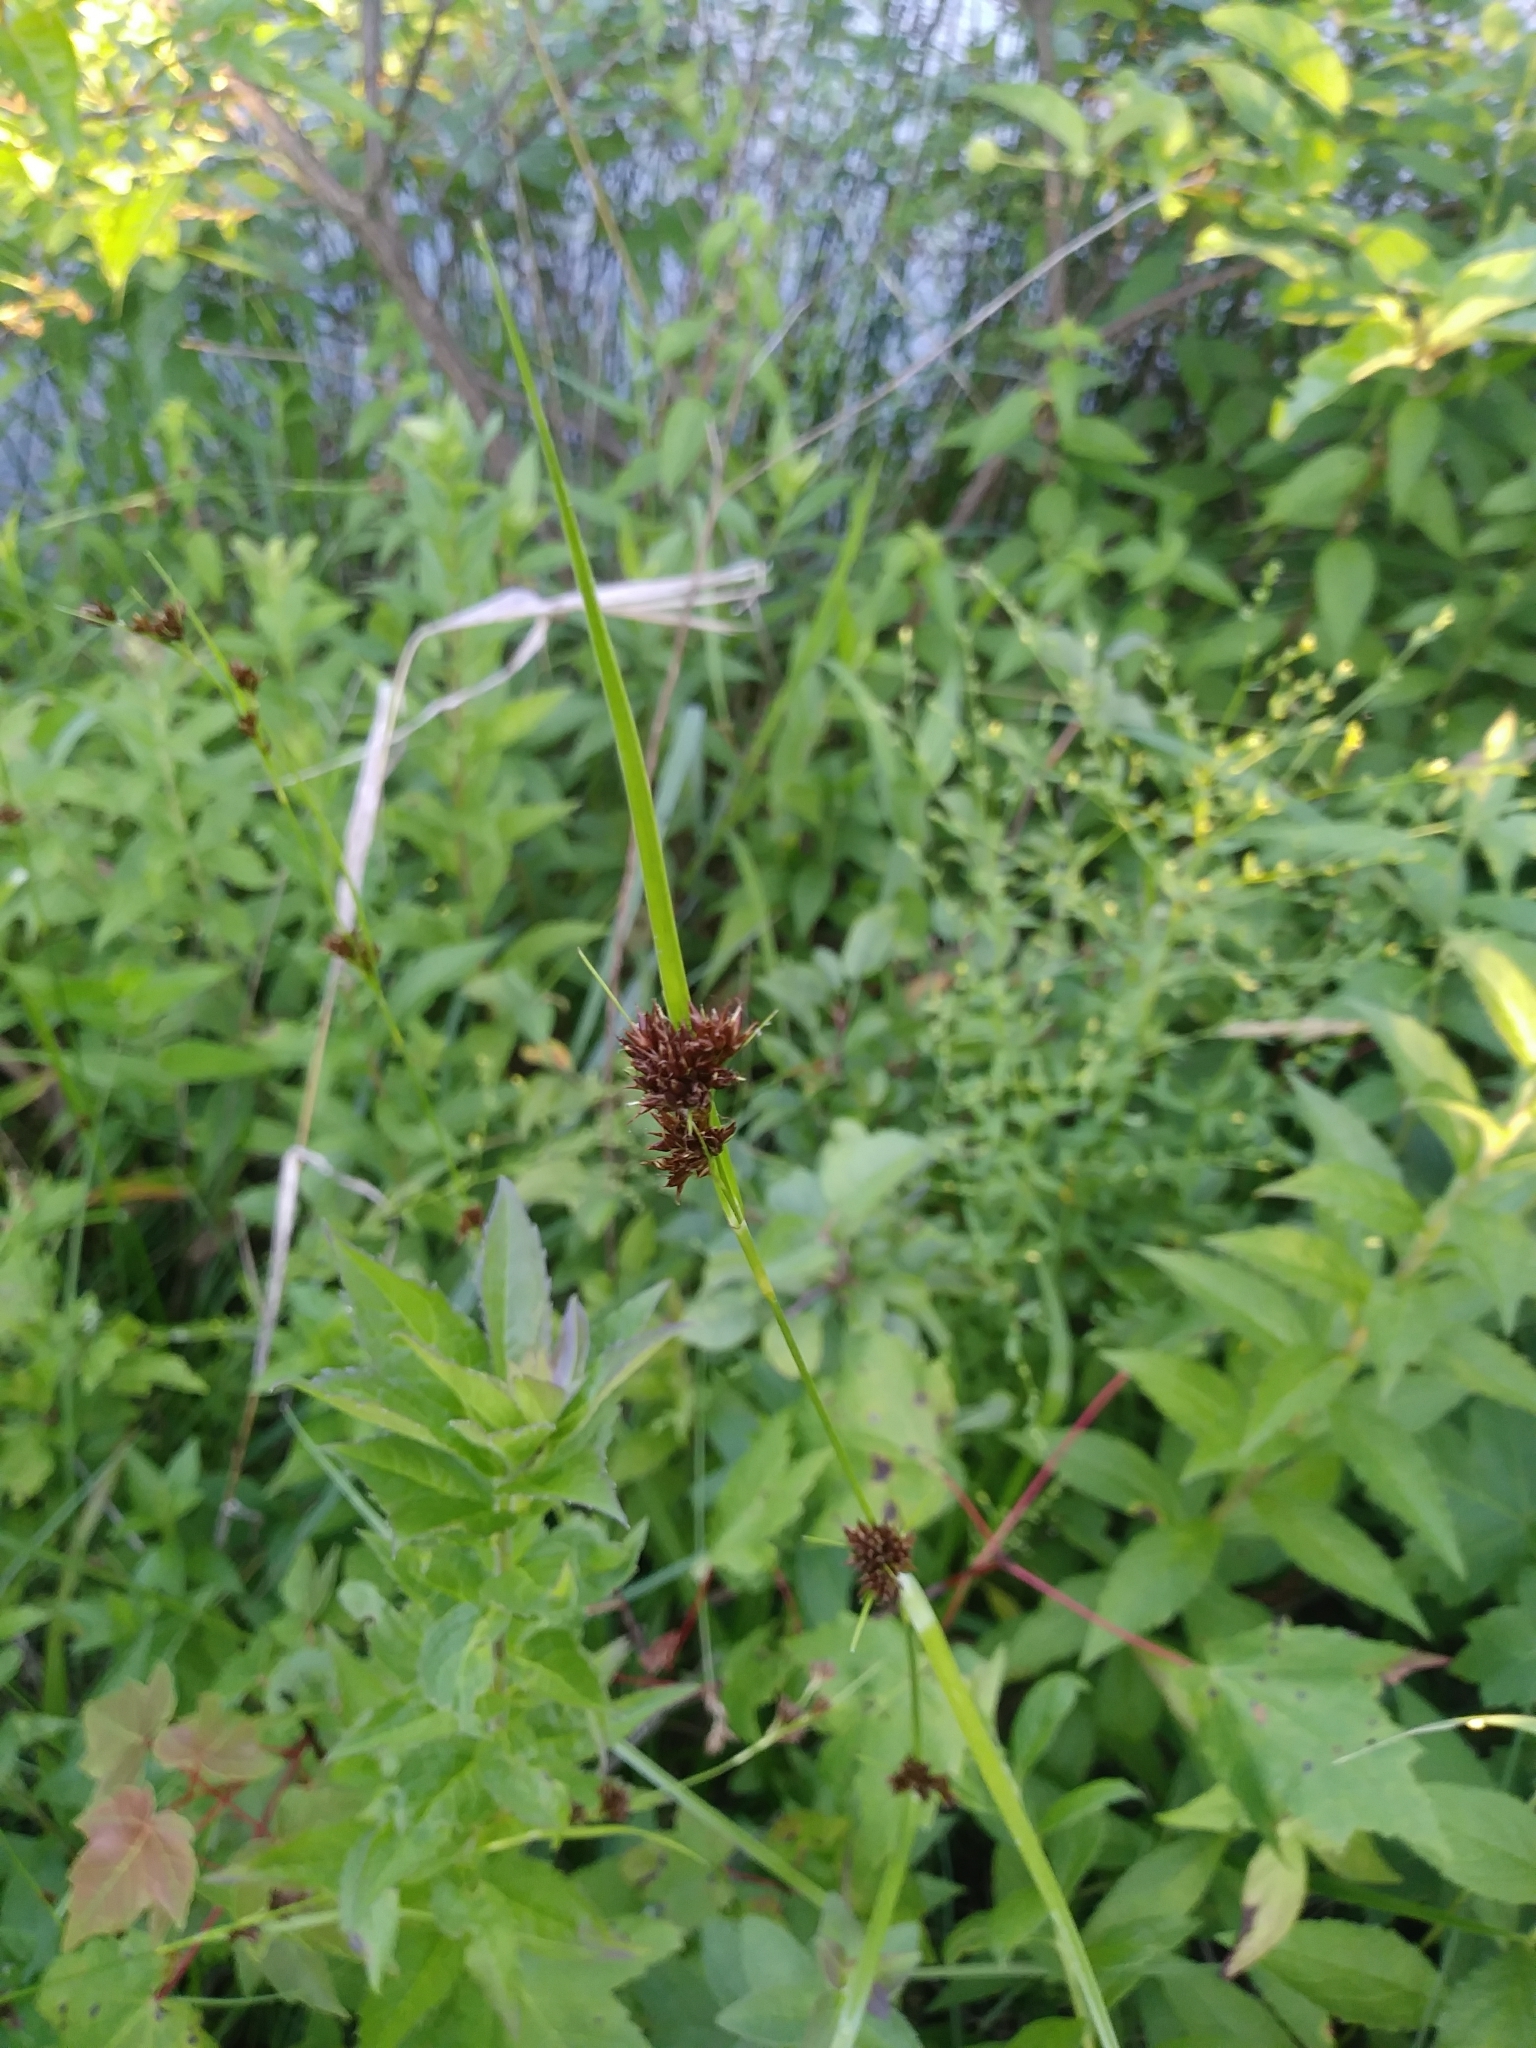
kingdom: Plantae
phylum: Tracheophyta
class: Liliopsida
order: Poales
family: Cyperaceae
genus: Rhynchospora
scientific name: Rhynchospora capitellata
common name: Brownish beaksedge
